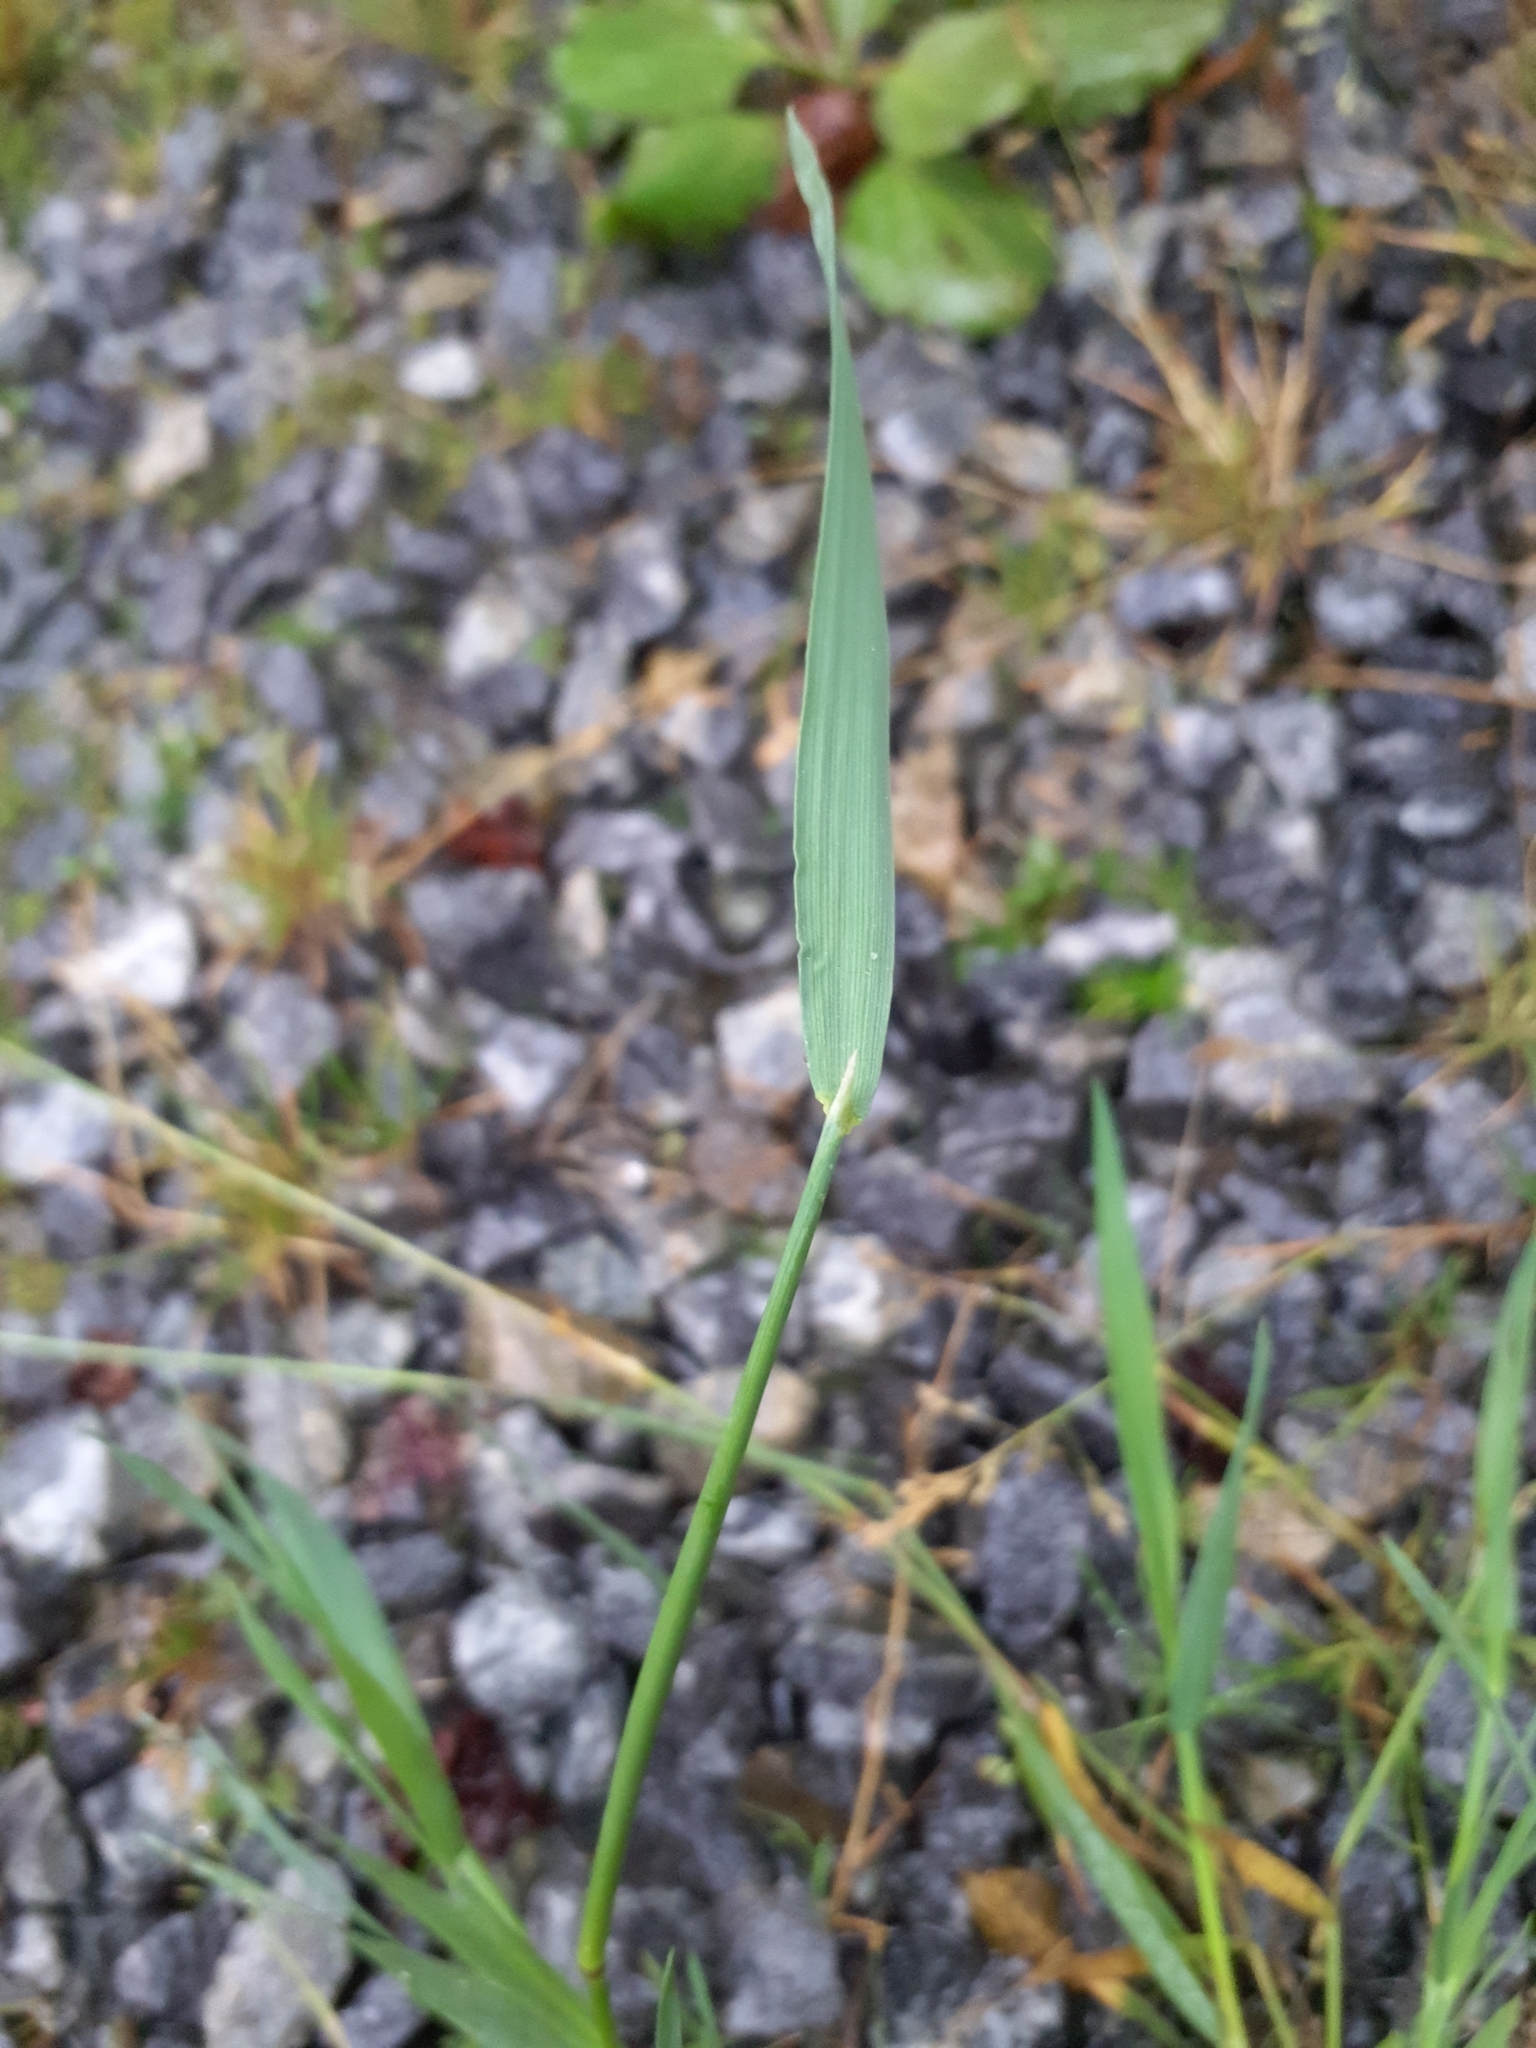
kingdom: Plantae
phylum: Tracheophyta
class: Liliopsida
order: Poales
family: Poaceae
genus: Polypogon
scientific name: Polypogon viridis
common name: Water bent
